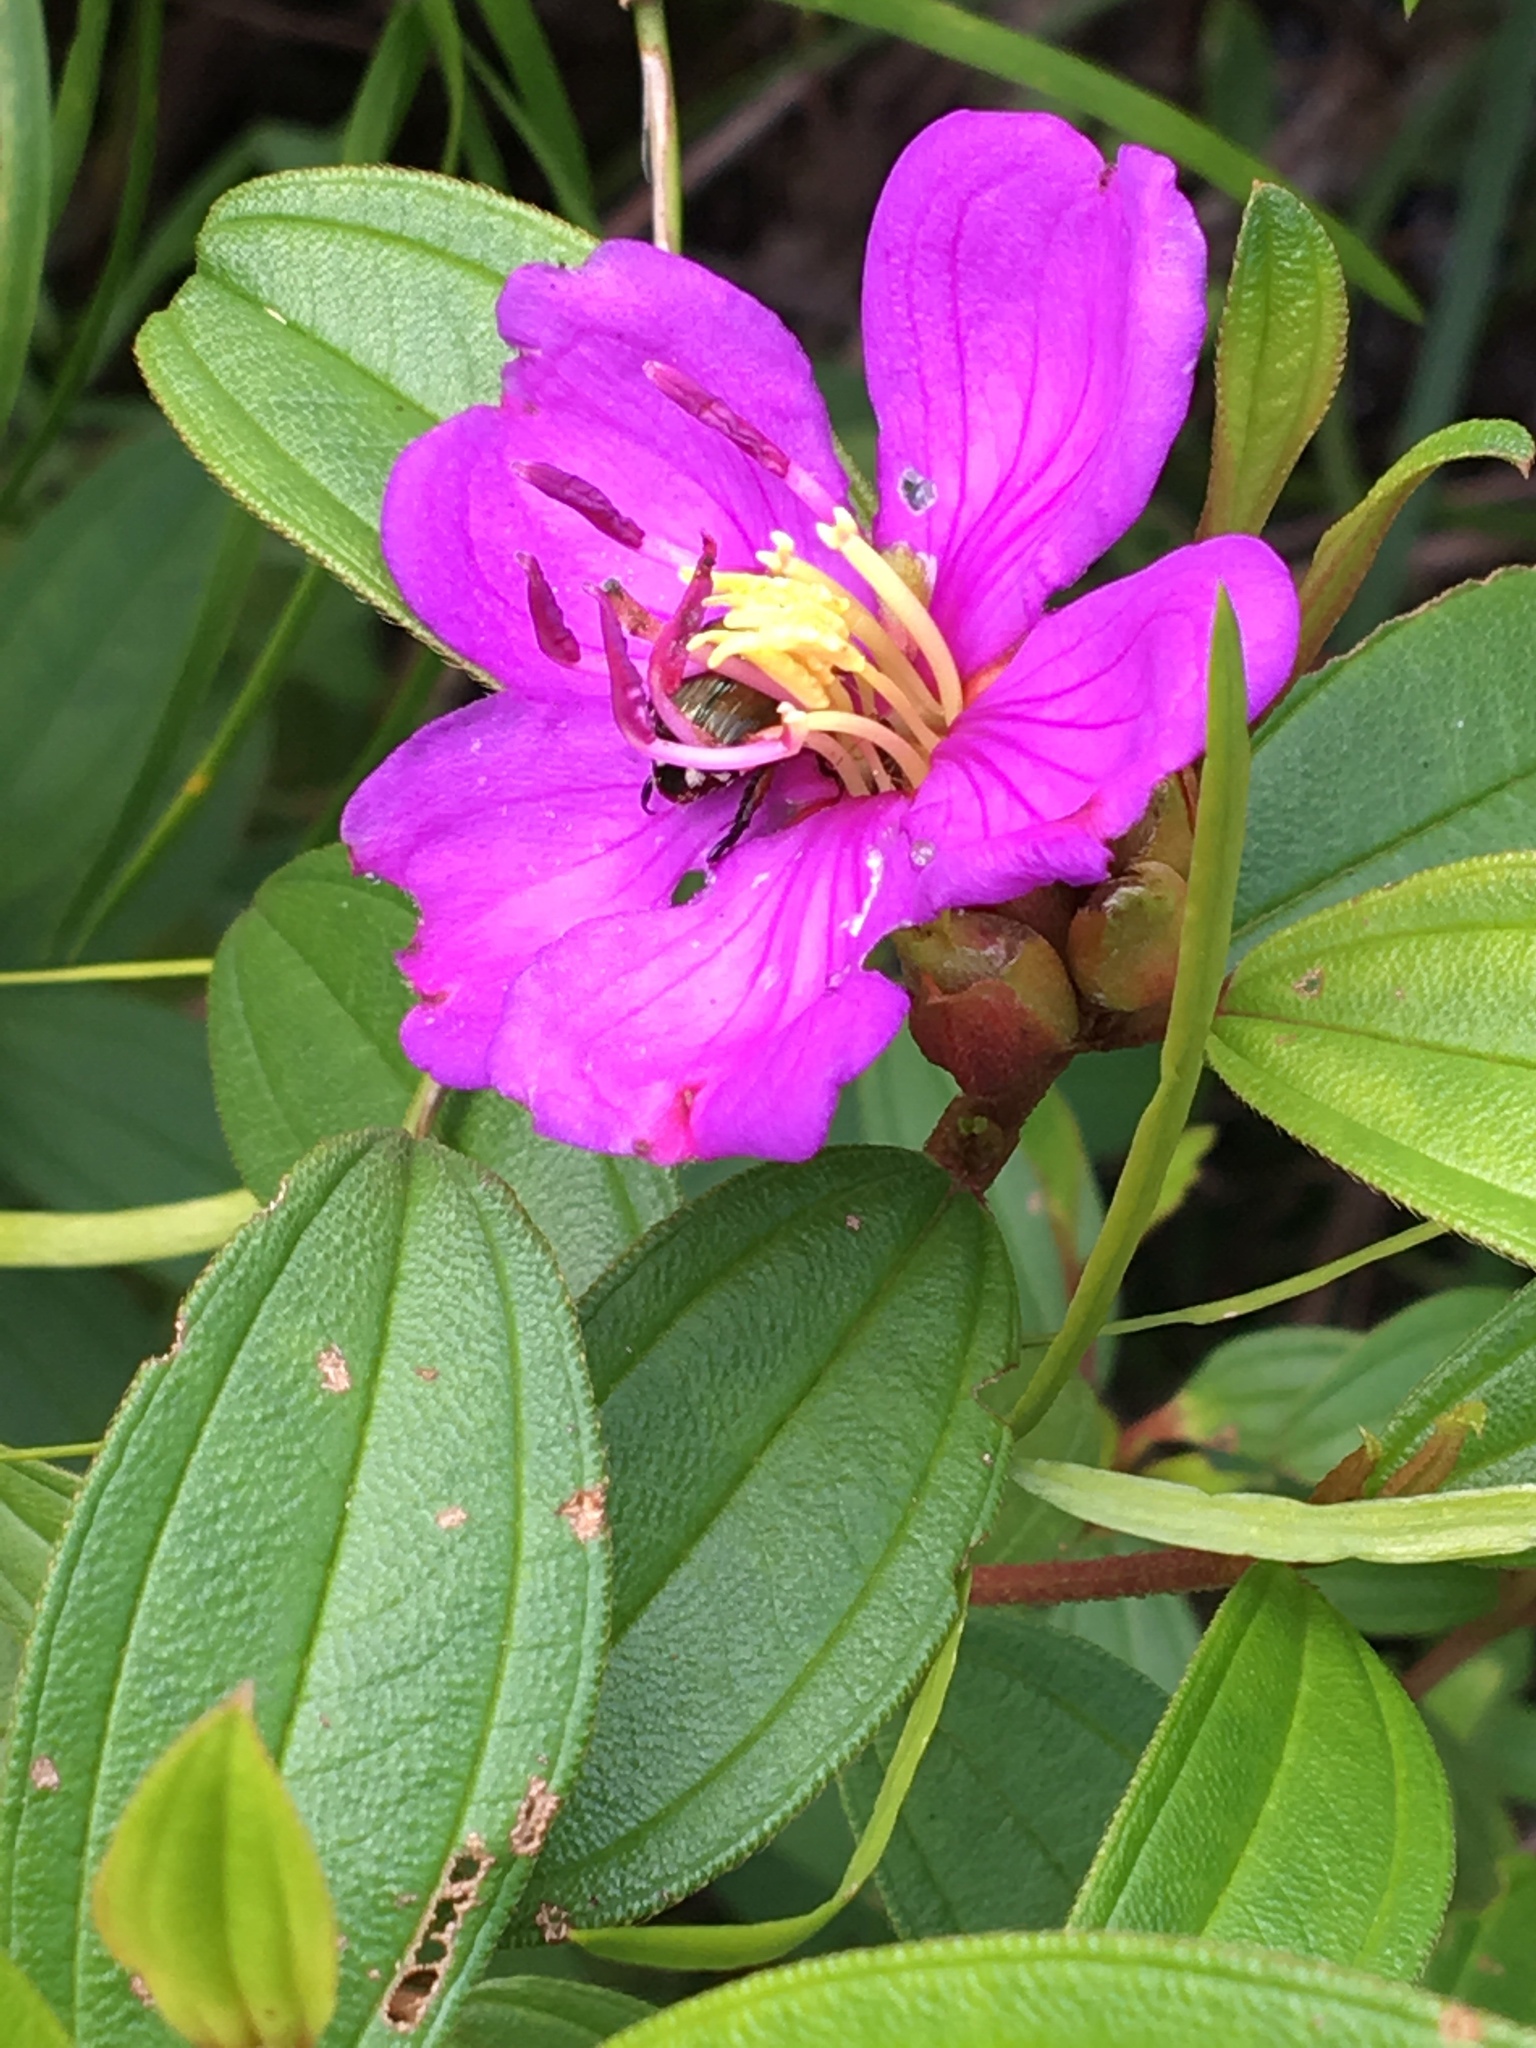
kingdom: Plantae
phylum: Tracheophyta
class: Magnoliopsida
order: Myrtales
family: Melastomataceae
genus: Melastoma
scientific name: Melastoma malabathricum
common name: Indian-rhododendron
